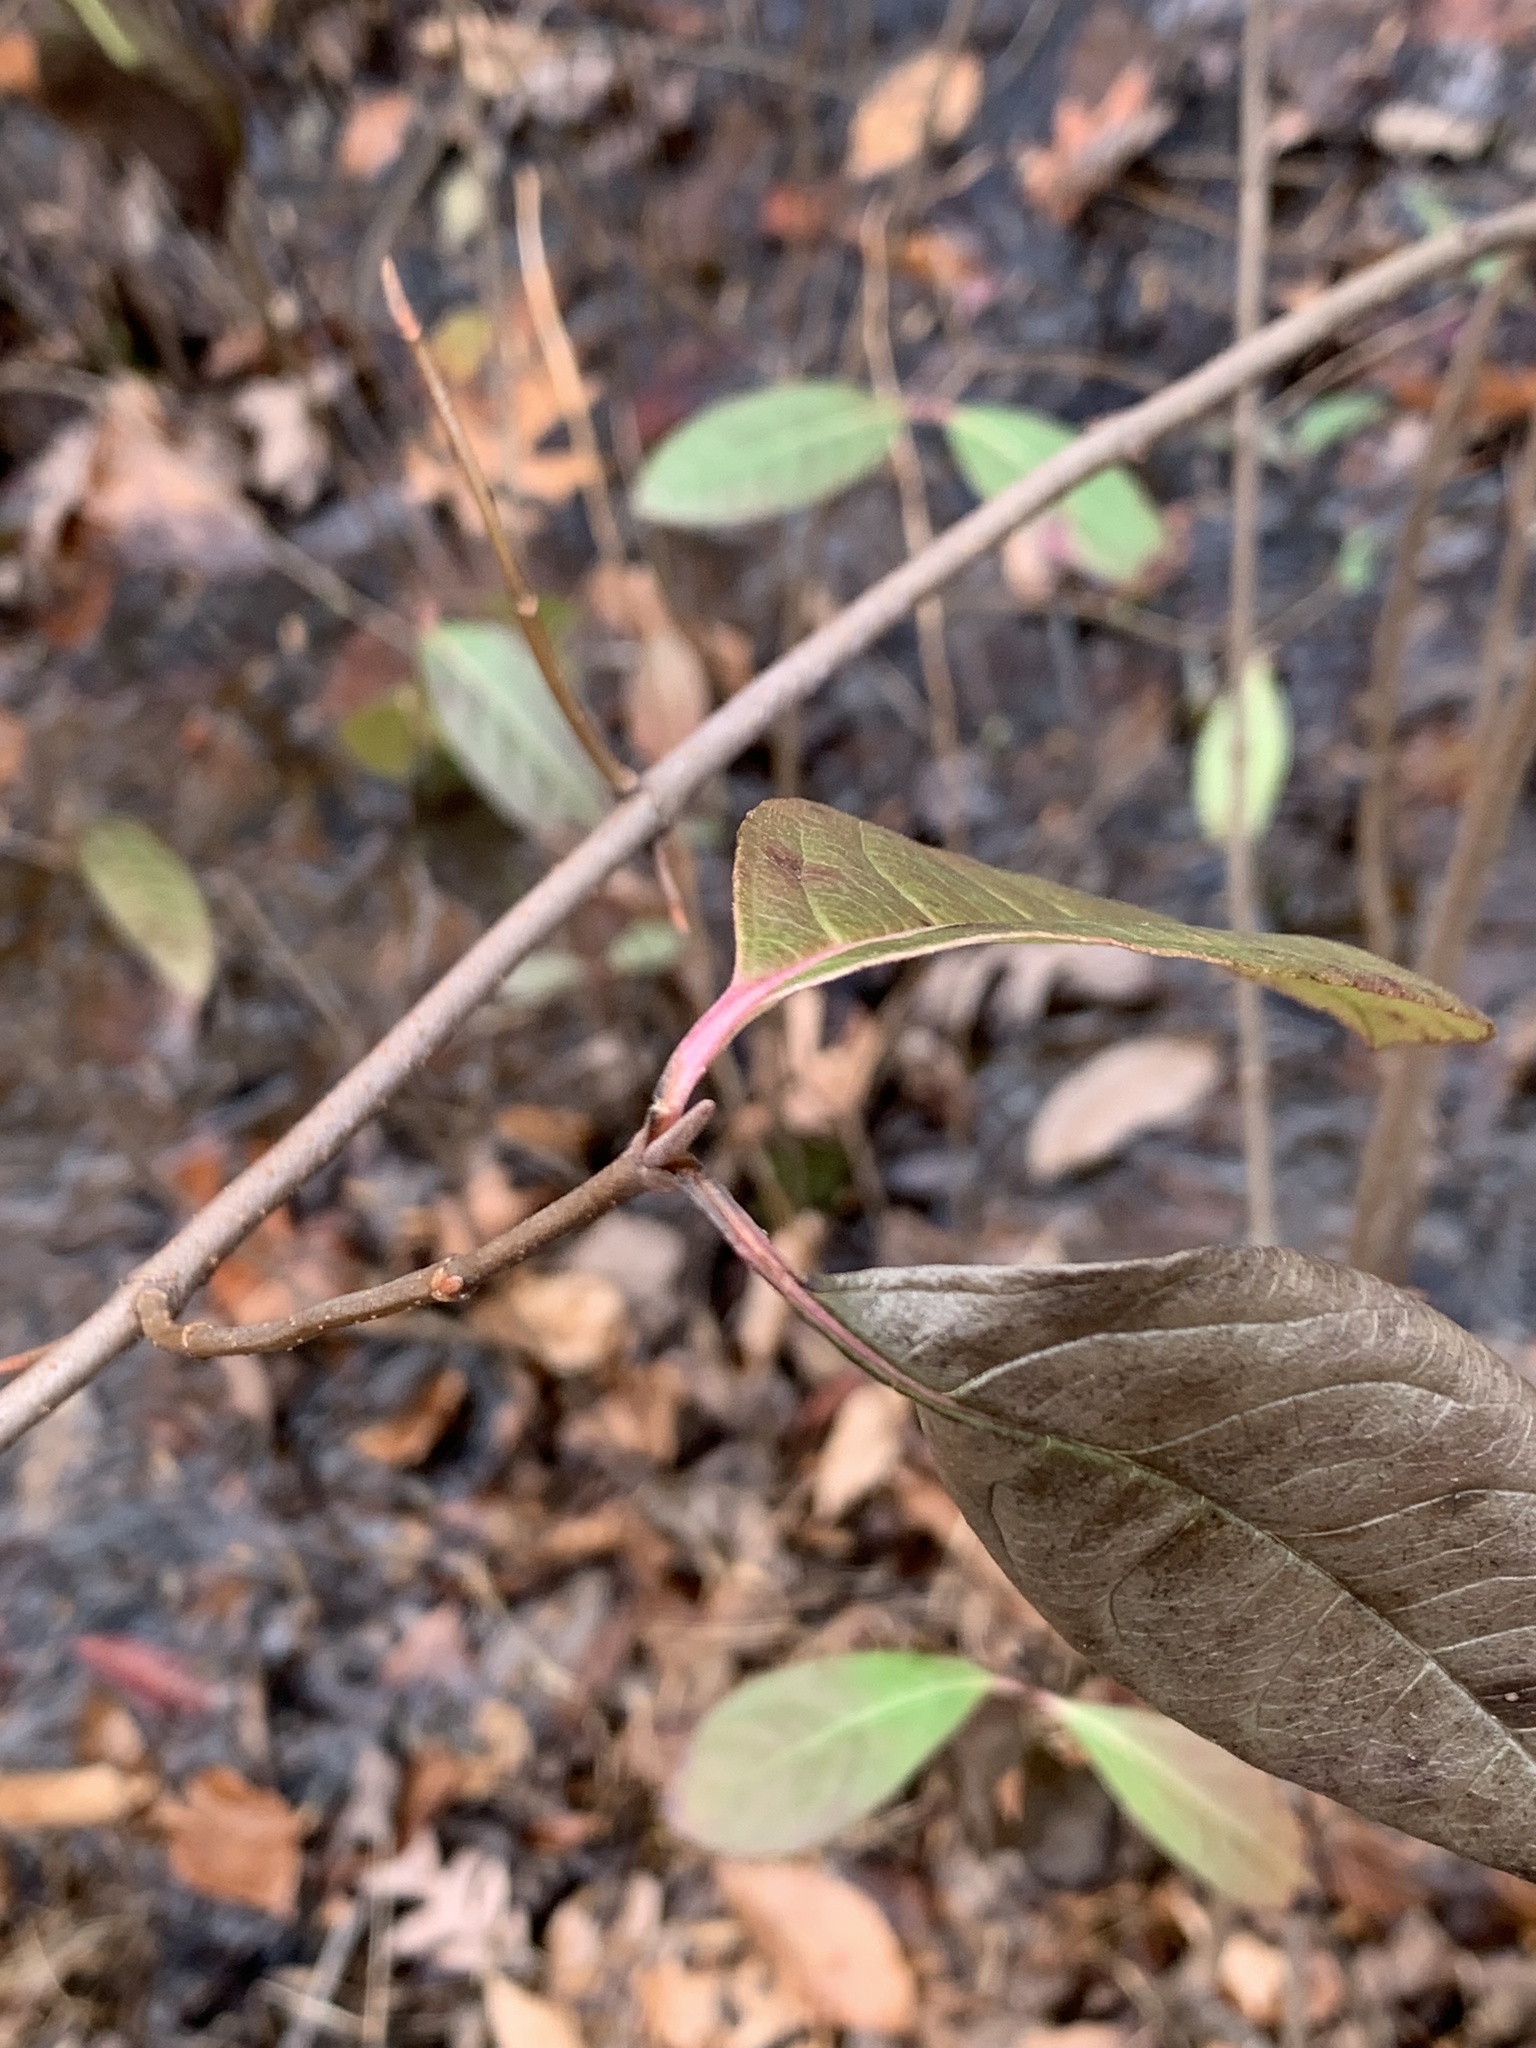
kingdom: Plantae
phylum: Tracheophyta
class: Magnoliopsida
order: Dipsacales
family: Viburnaceae
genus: Viburnum
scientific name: Viburnum nudum
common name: Possum haw
